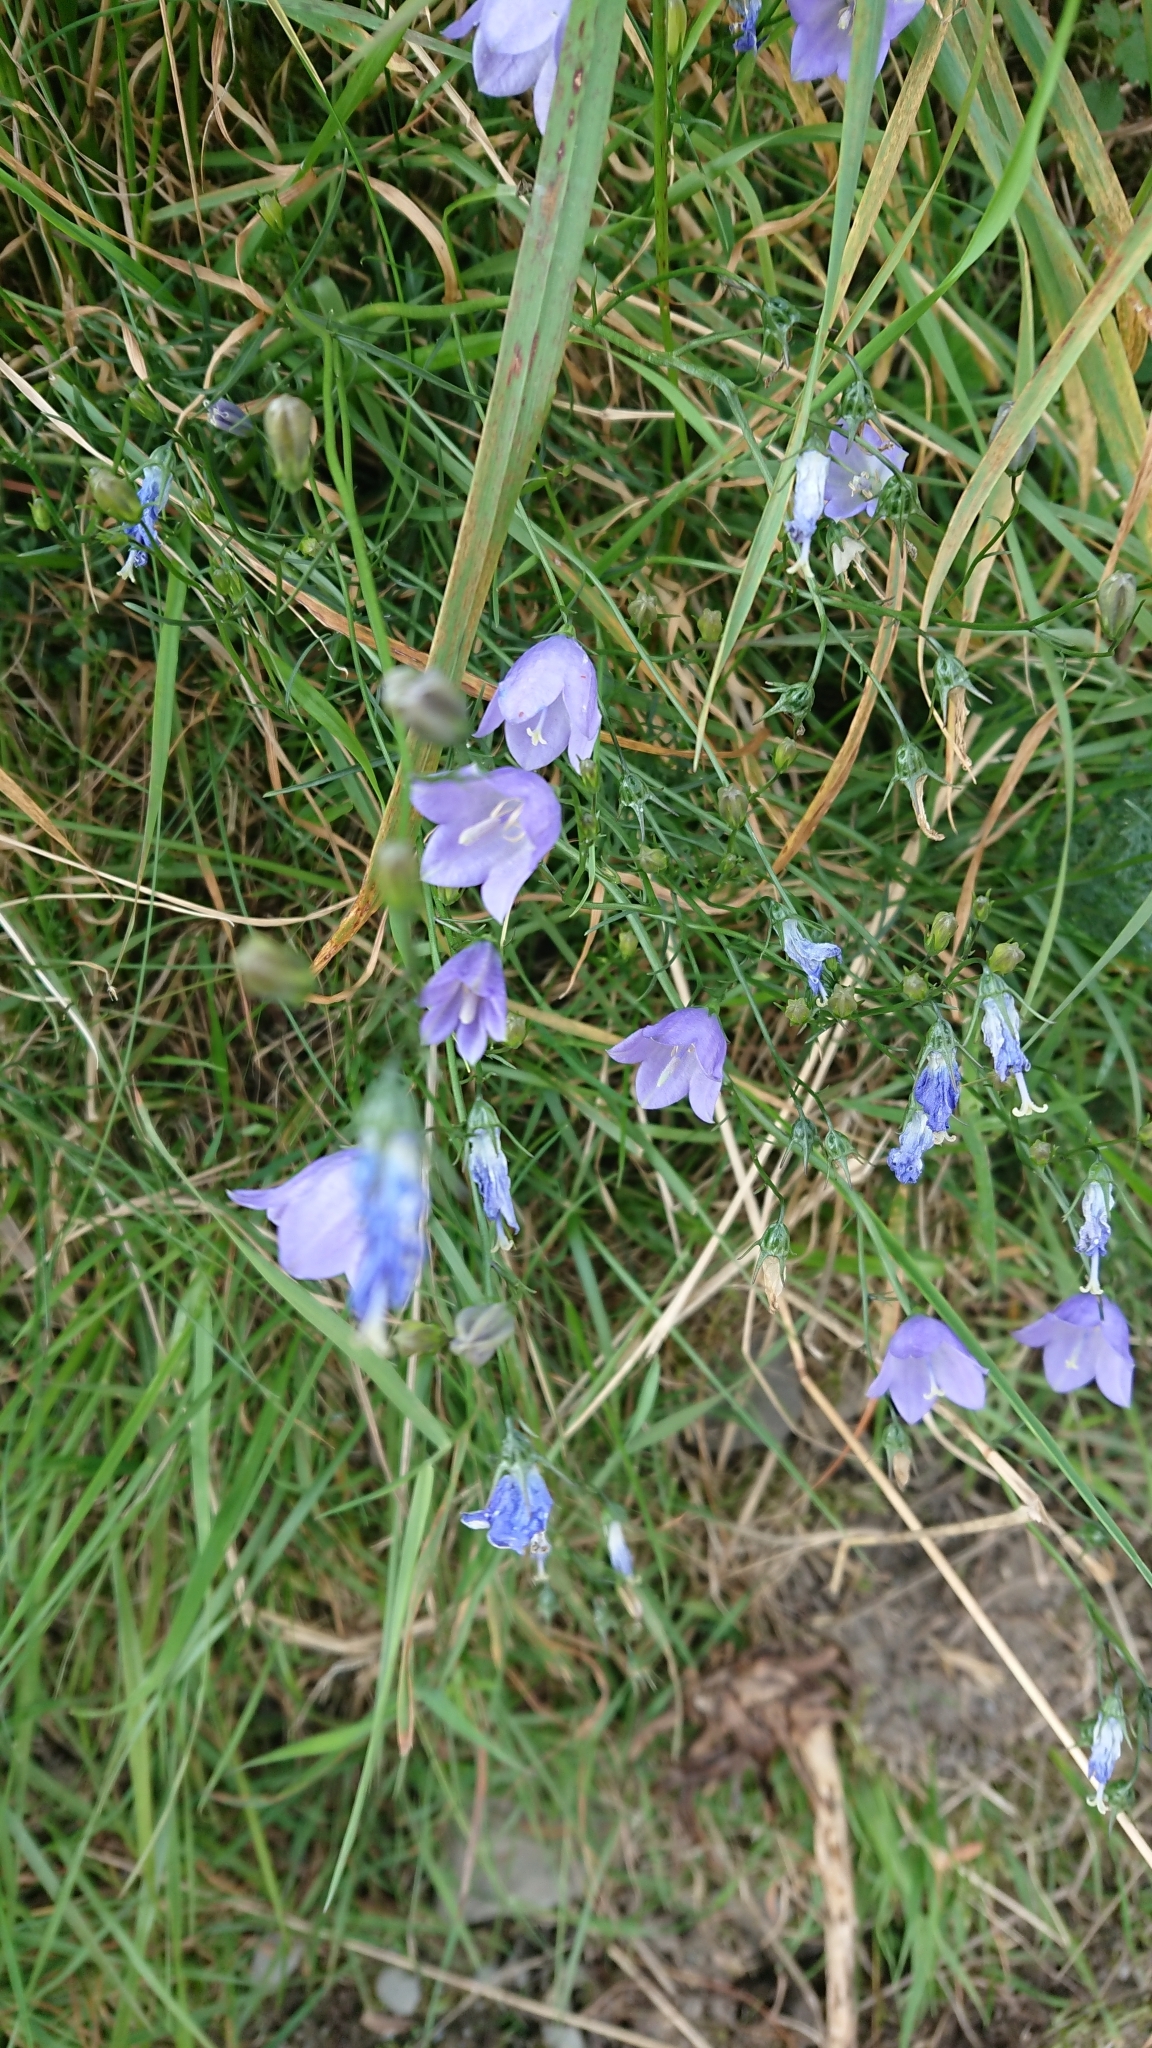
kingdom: Plantae
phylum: Tracheophyta
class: Magnoliopsida
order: Asterales
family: Campanulaceae
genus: Campanula
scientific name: Campanula rotundifolia
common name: Harebell
